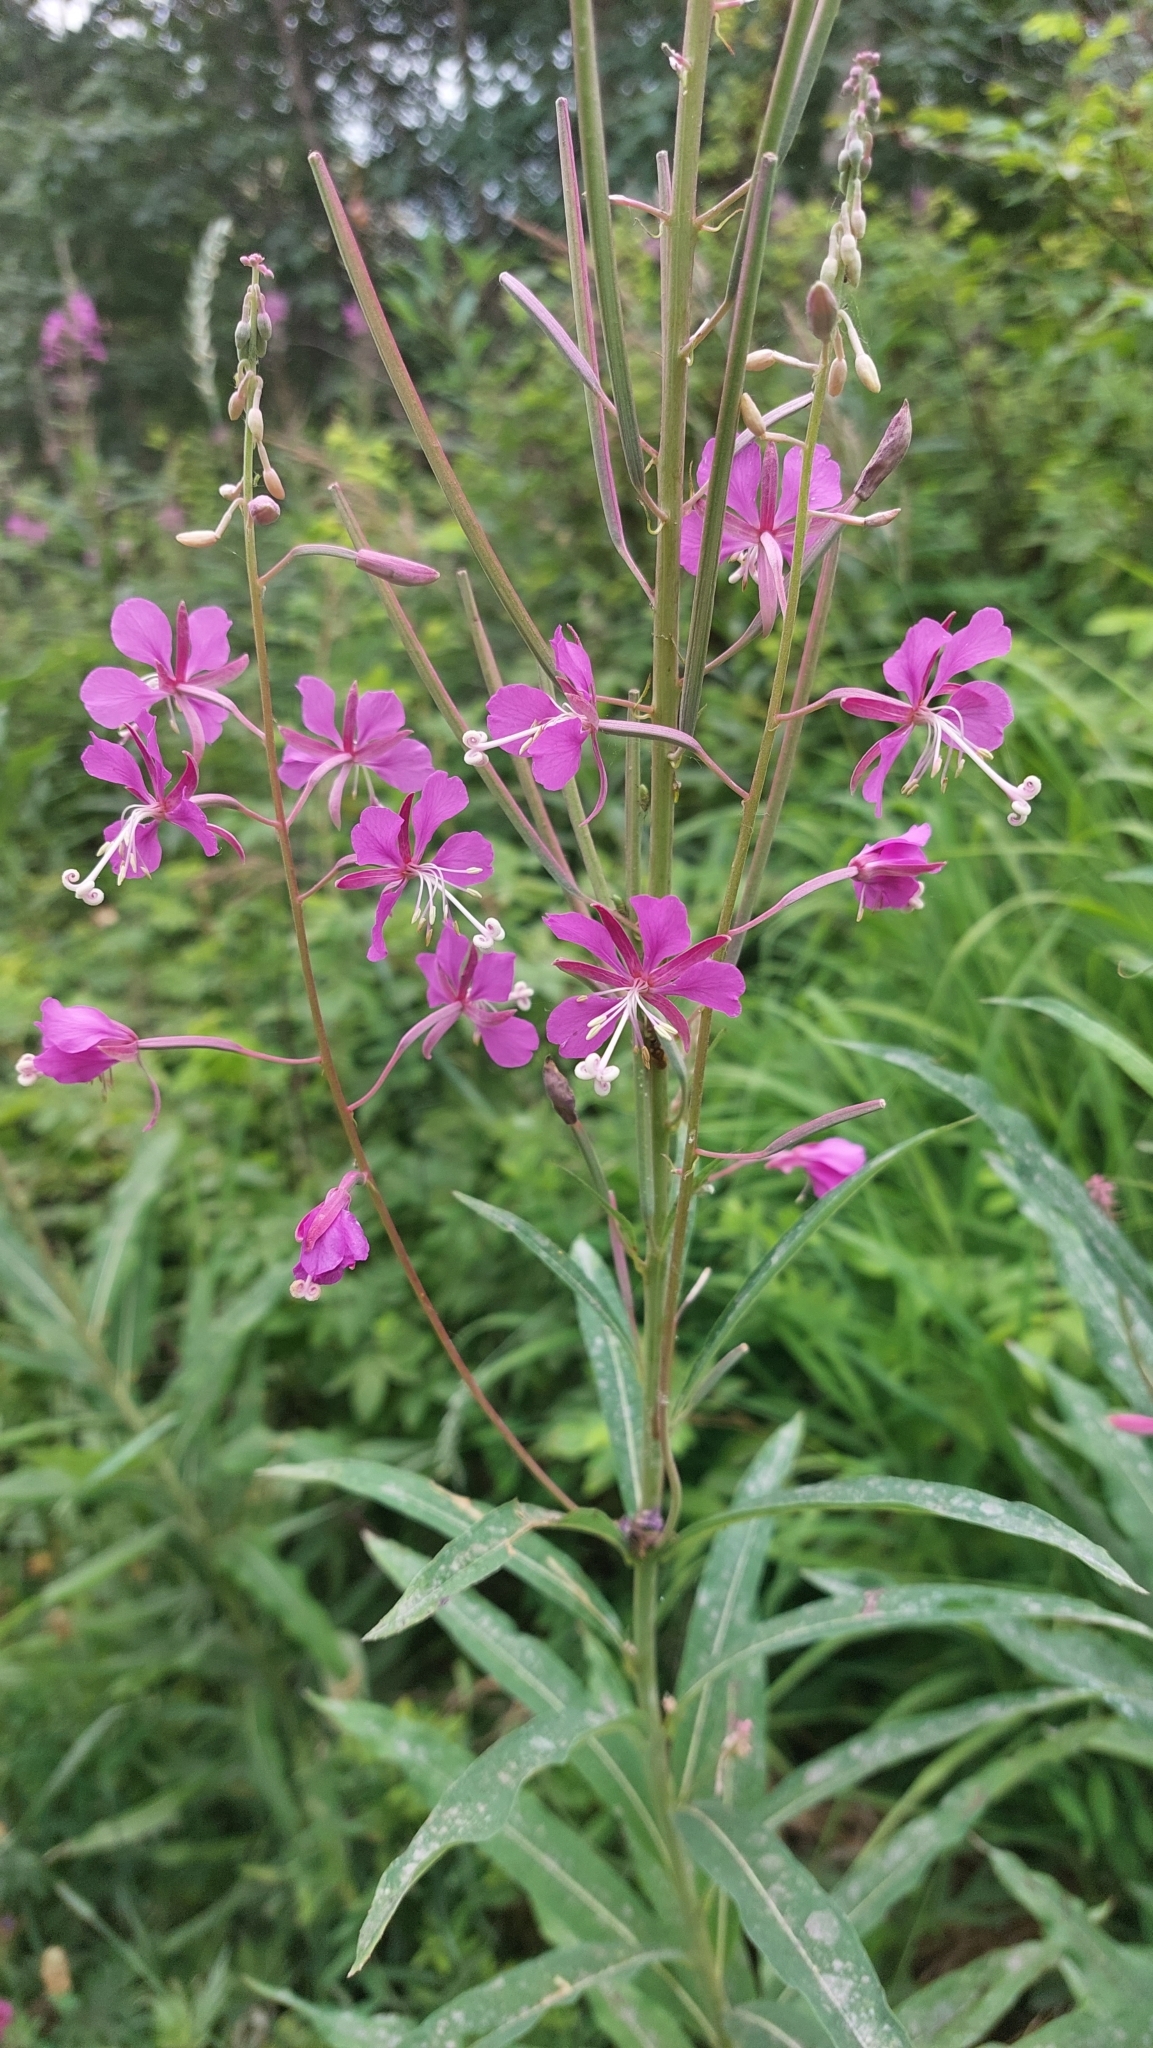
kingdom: Plantae
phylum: Tracheophyta
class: Magnoliopsida
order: Myrtales
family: Onagraceae
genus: Chamaenerion
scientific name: Chamaenerion angustifolium
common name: Fireweed
